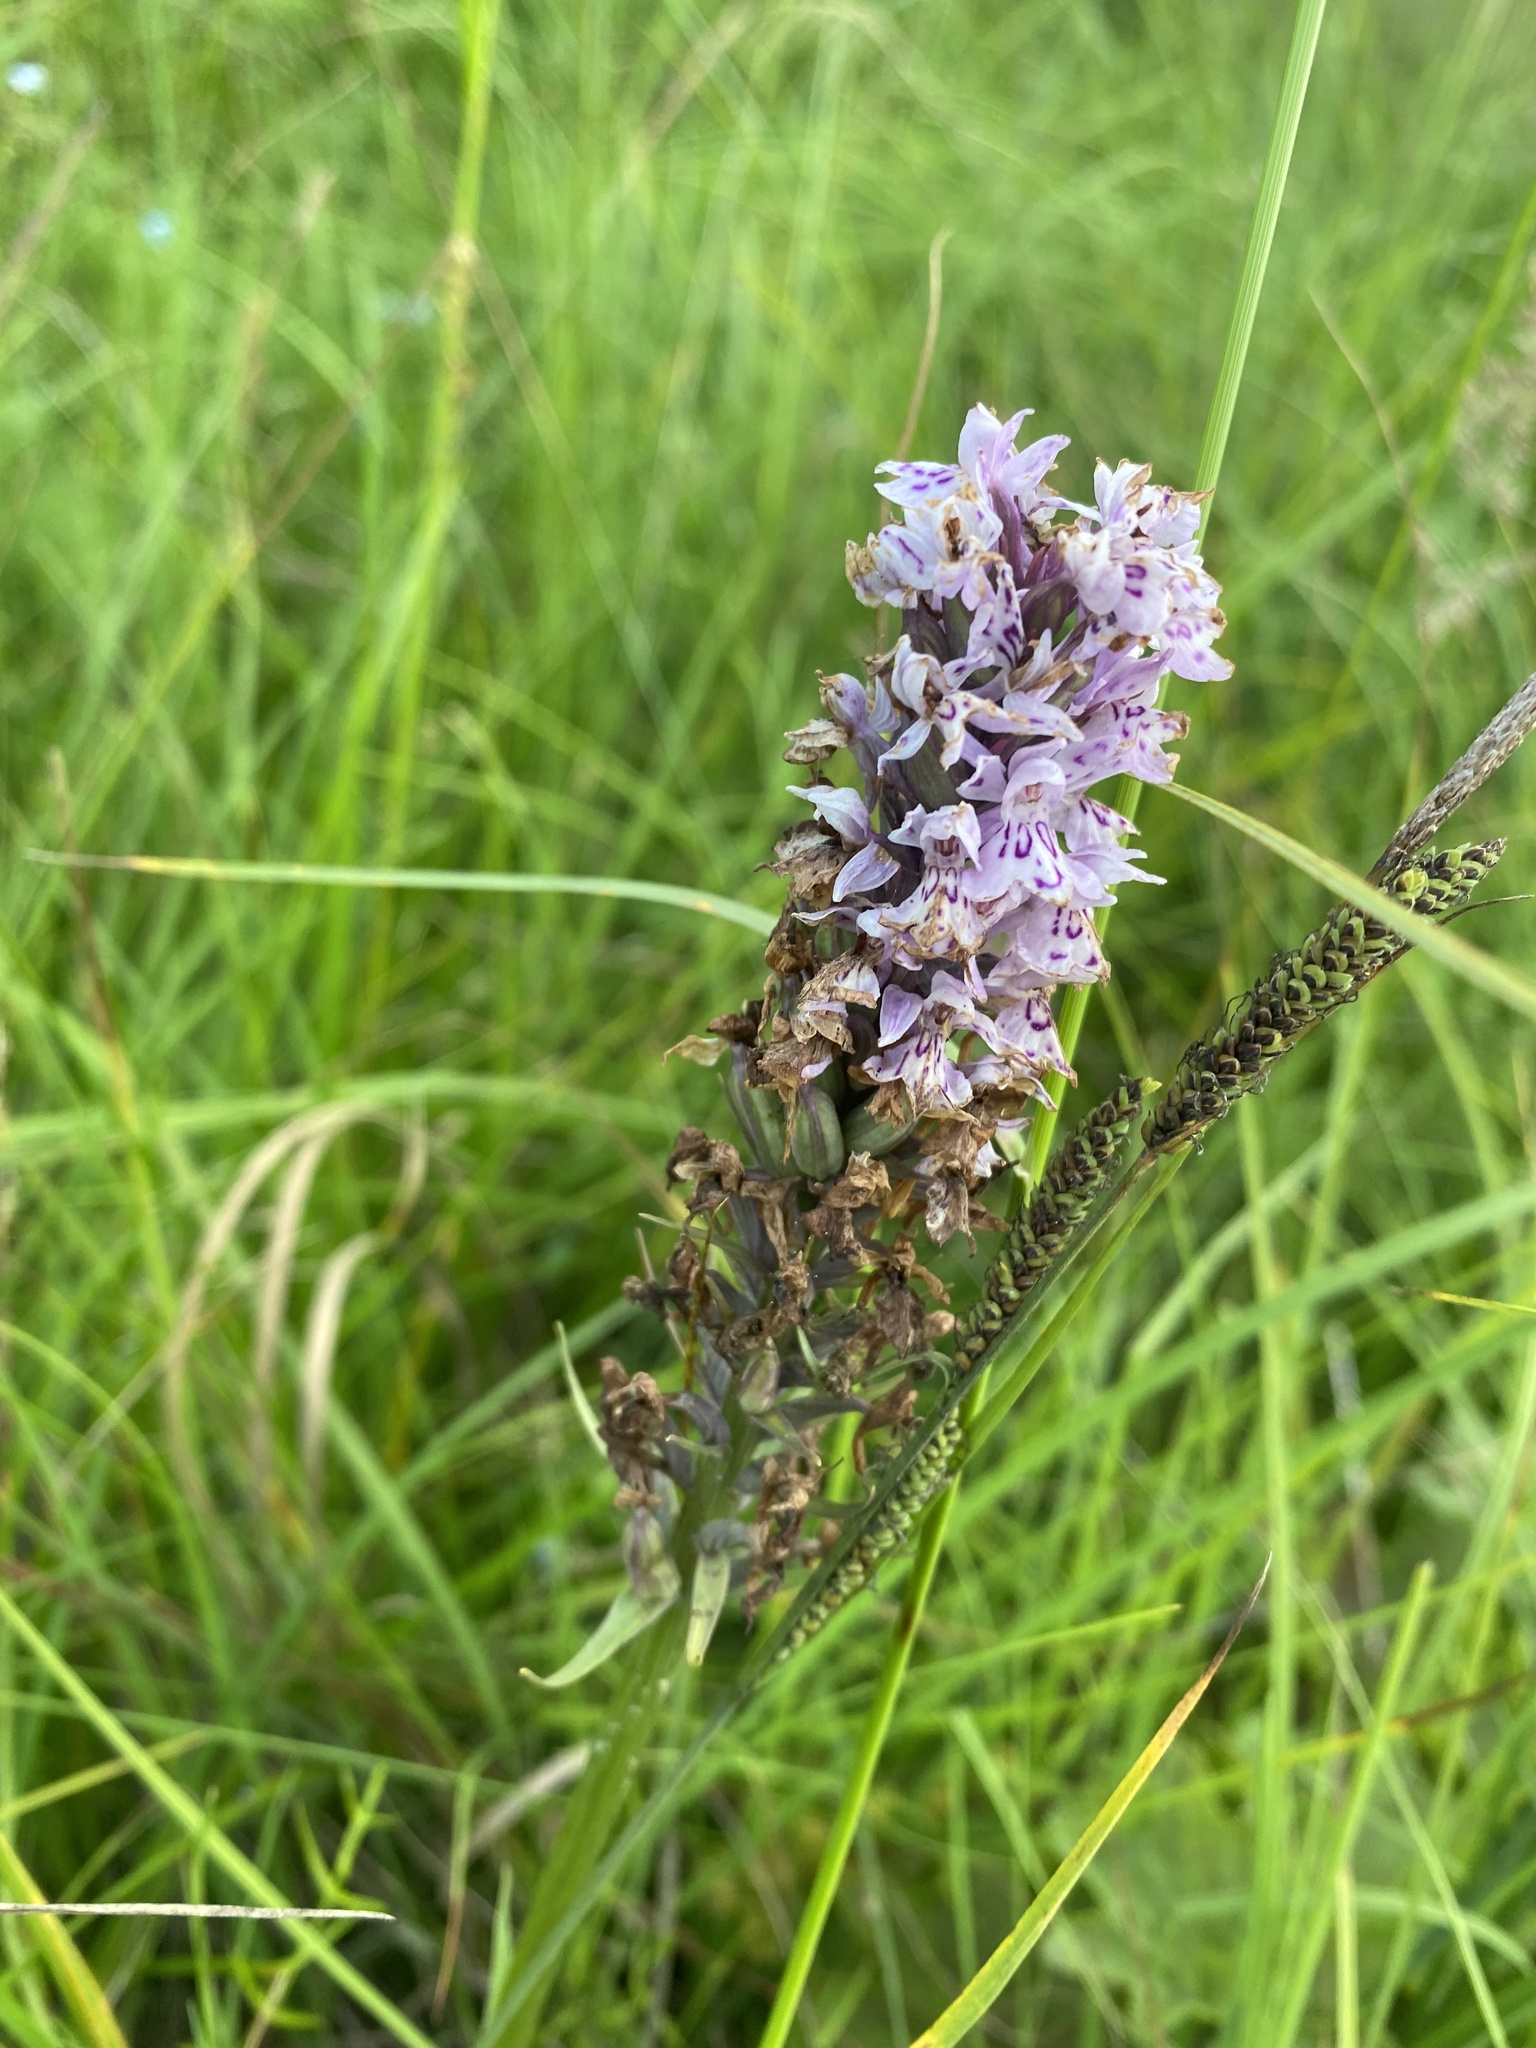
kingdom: Plantae
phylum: Tracheophyta
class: Liliopsida
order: Asparagales
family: Orchidaceae
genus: Dactylorhiza
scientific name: Dactylorhiza maculata
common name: Heath spotted-orchid
